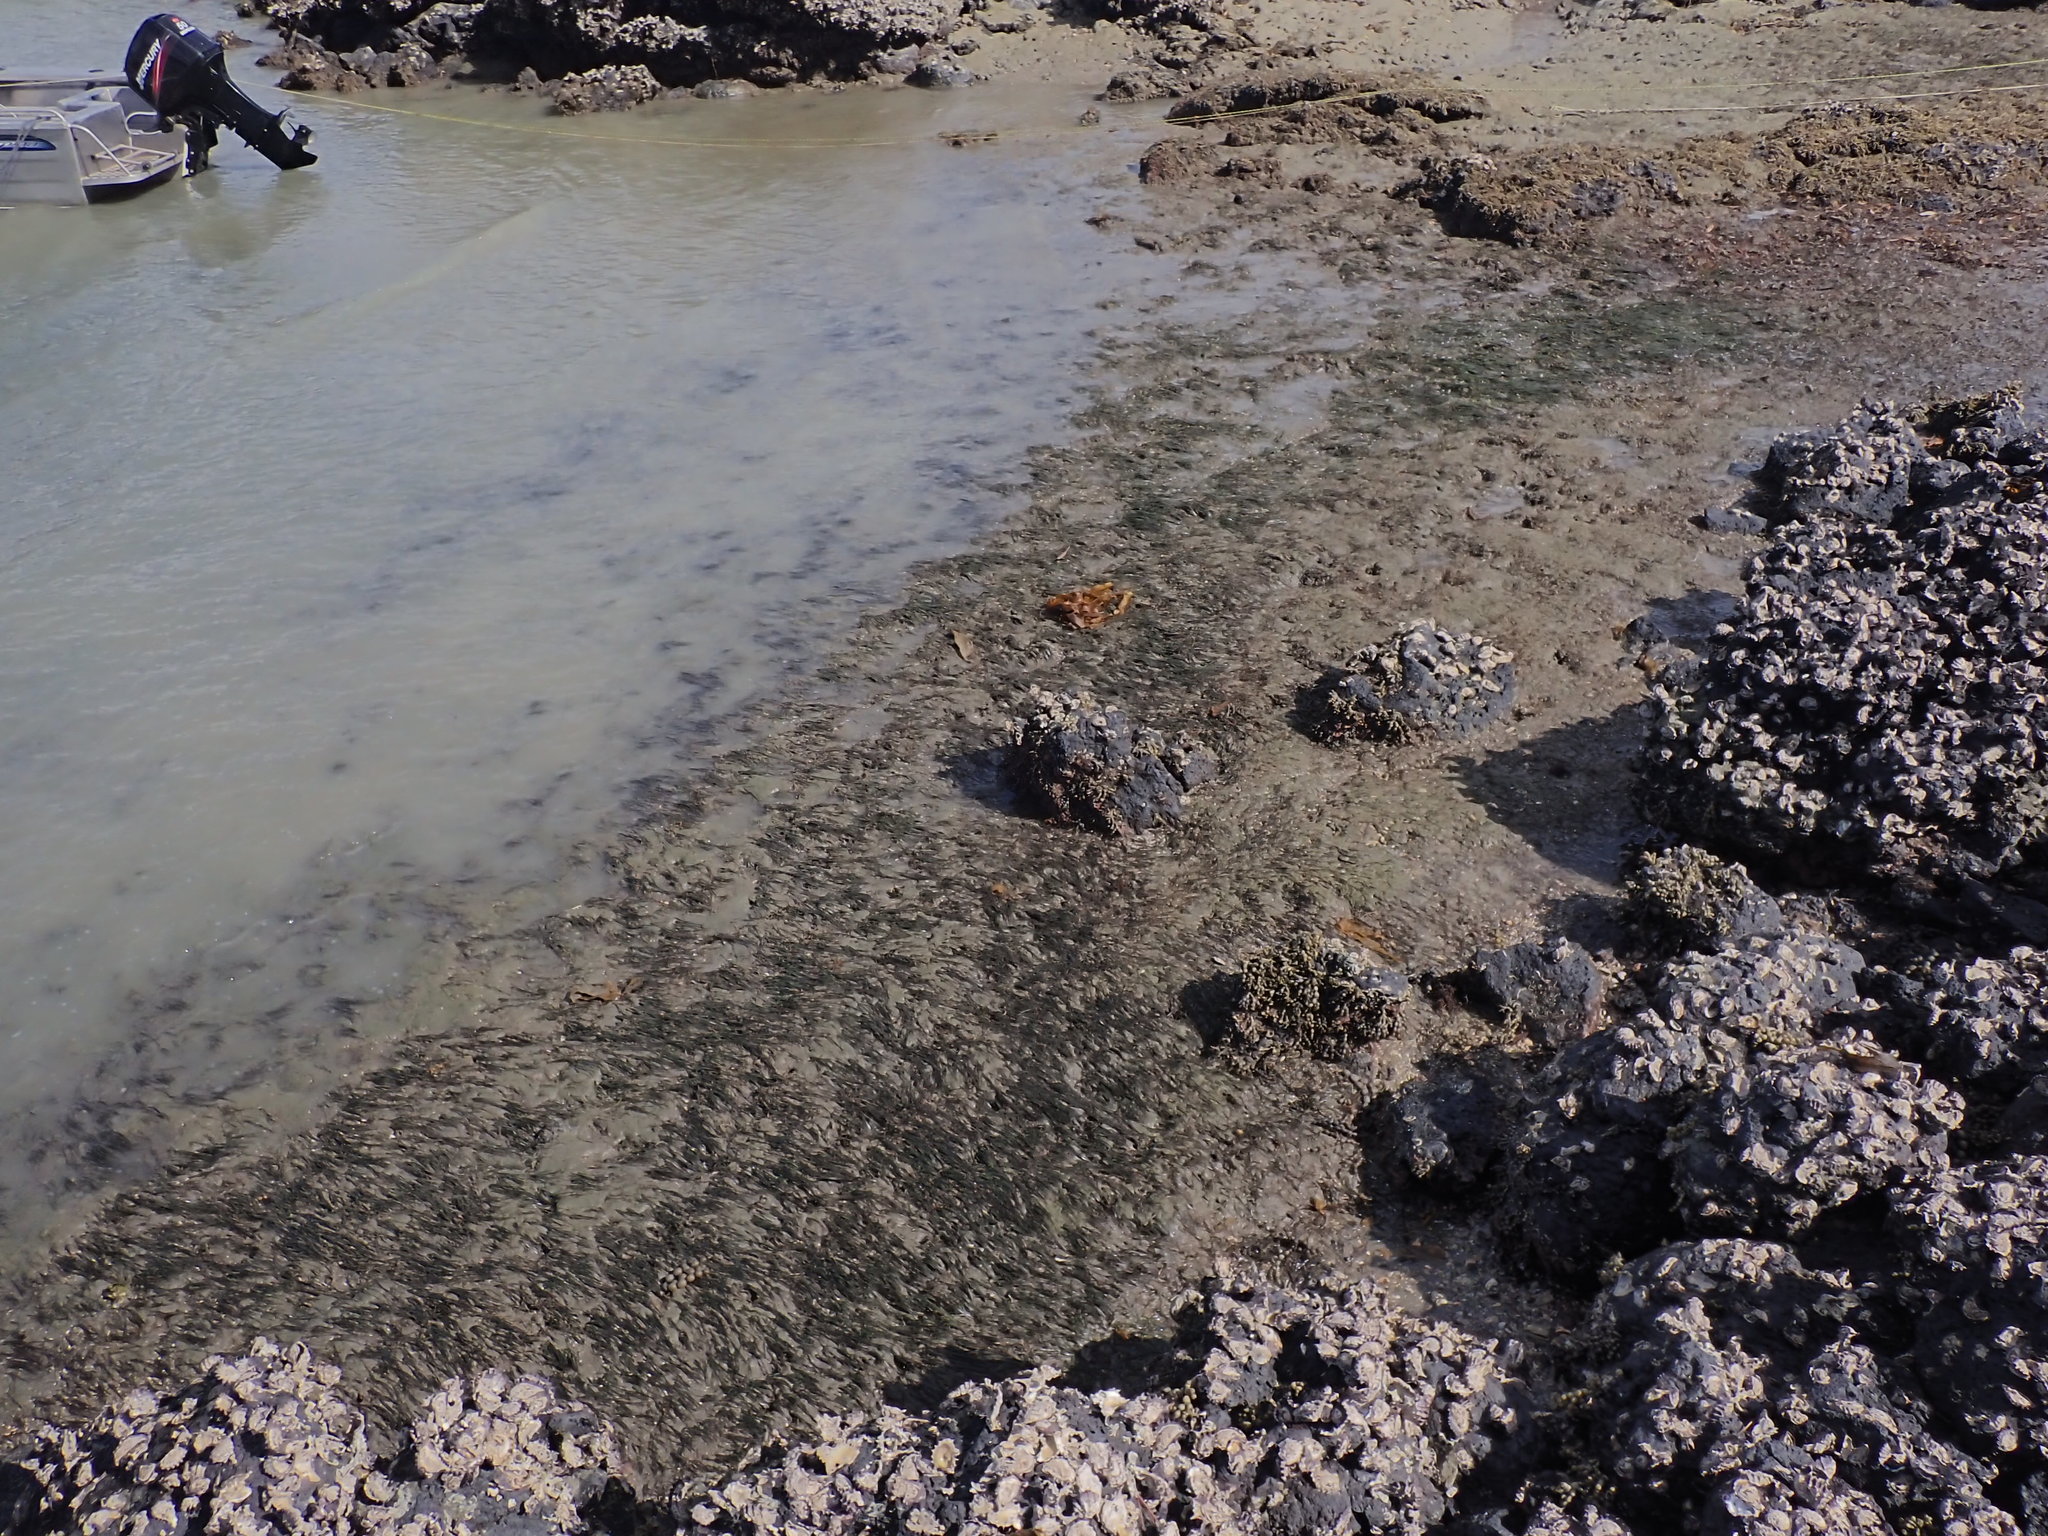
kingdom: Plantae
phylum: Tracheophyta
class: Liliopsida
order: Alismatales
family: Zosteraceae
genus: Zostera
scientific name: Zostera novazelandica
